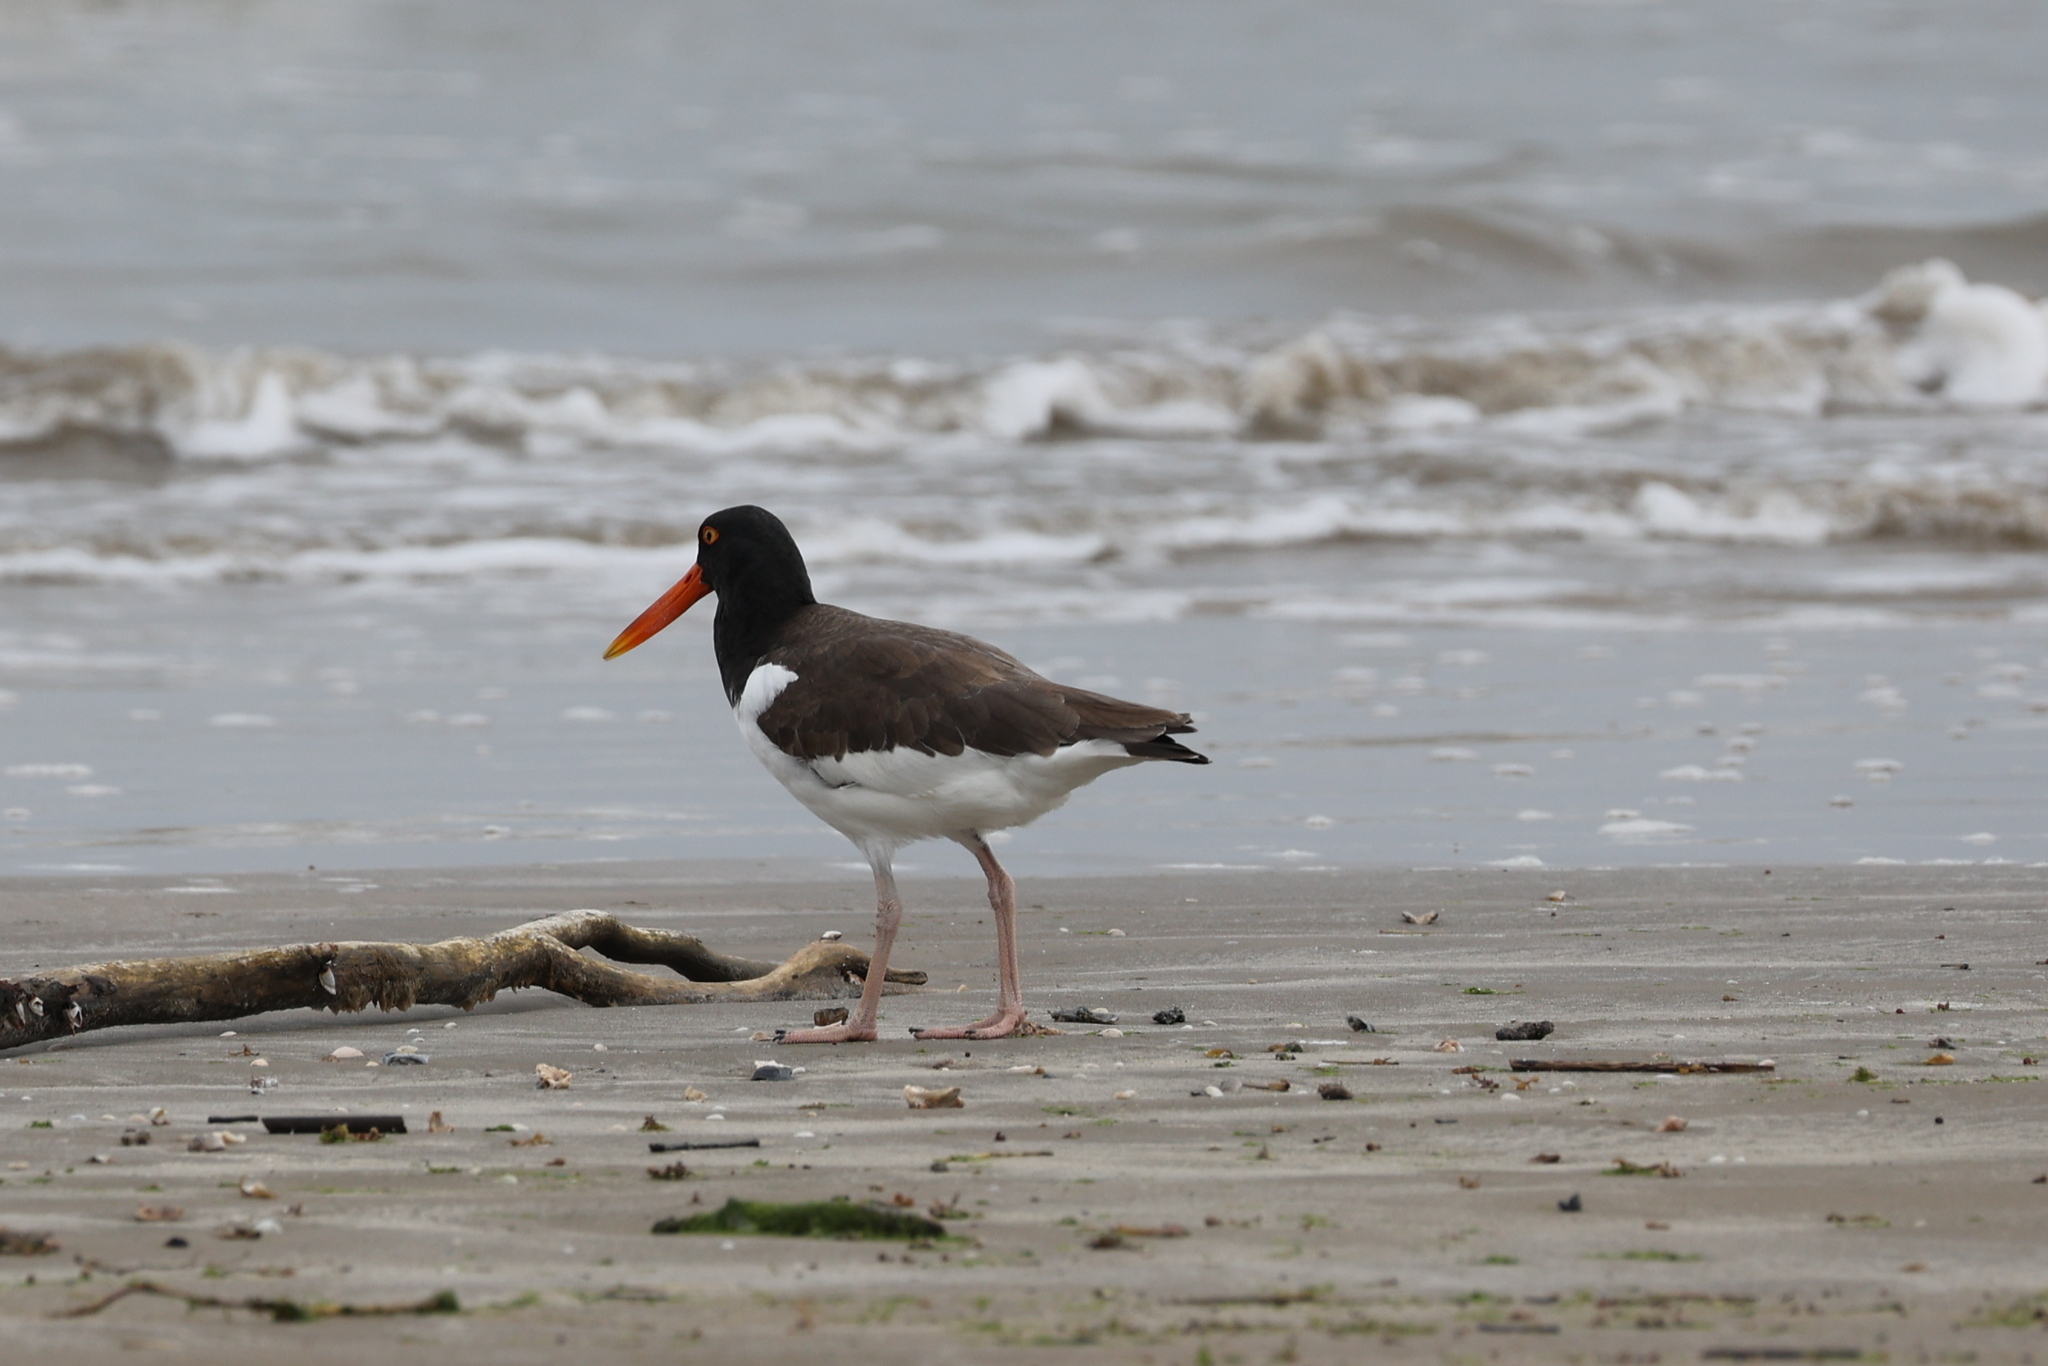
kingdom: Animalia
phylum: Chordata
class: Aves
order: Charadriiformes
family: Haematopodidae
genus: Haematopus
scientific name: Haematopus palliatus
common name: American oystercatcher
